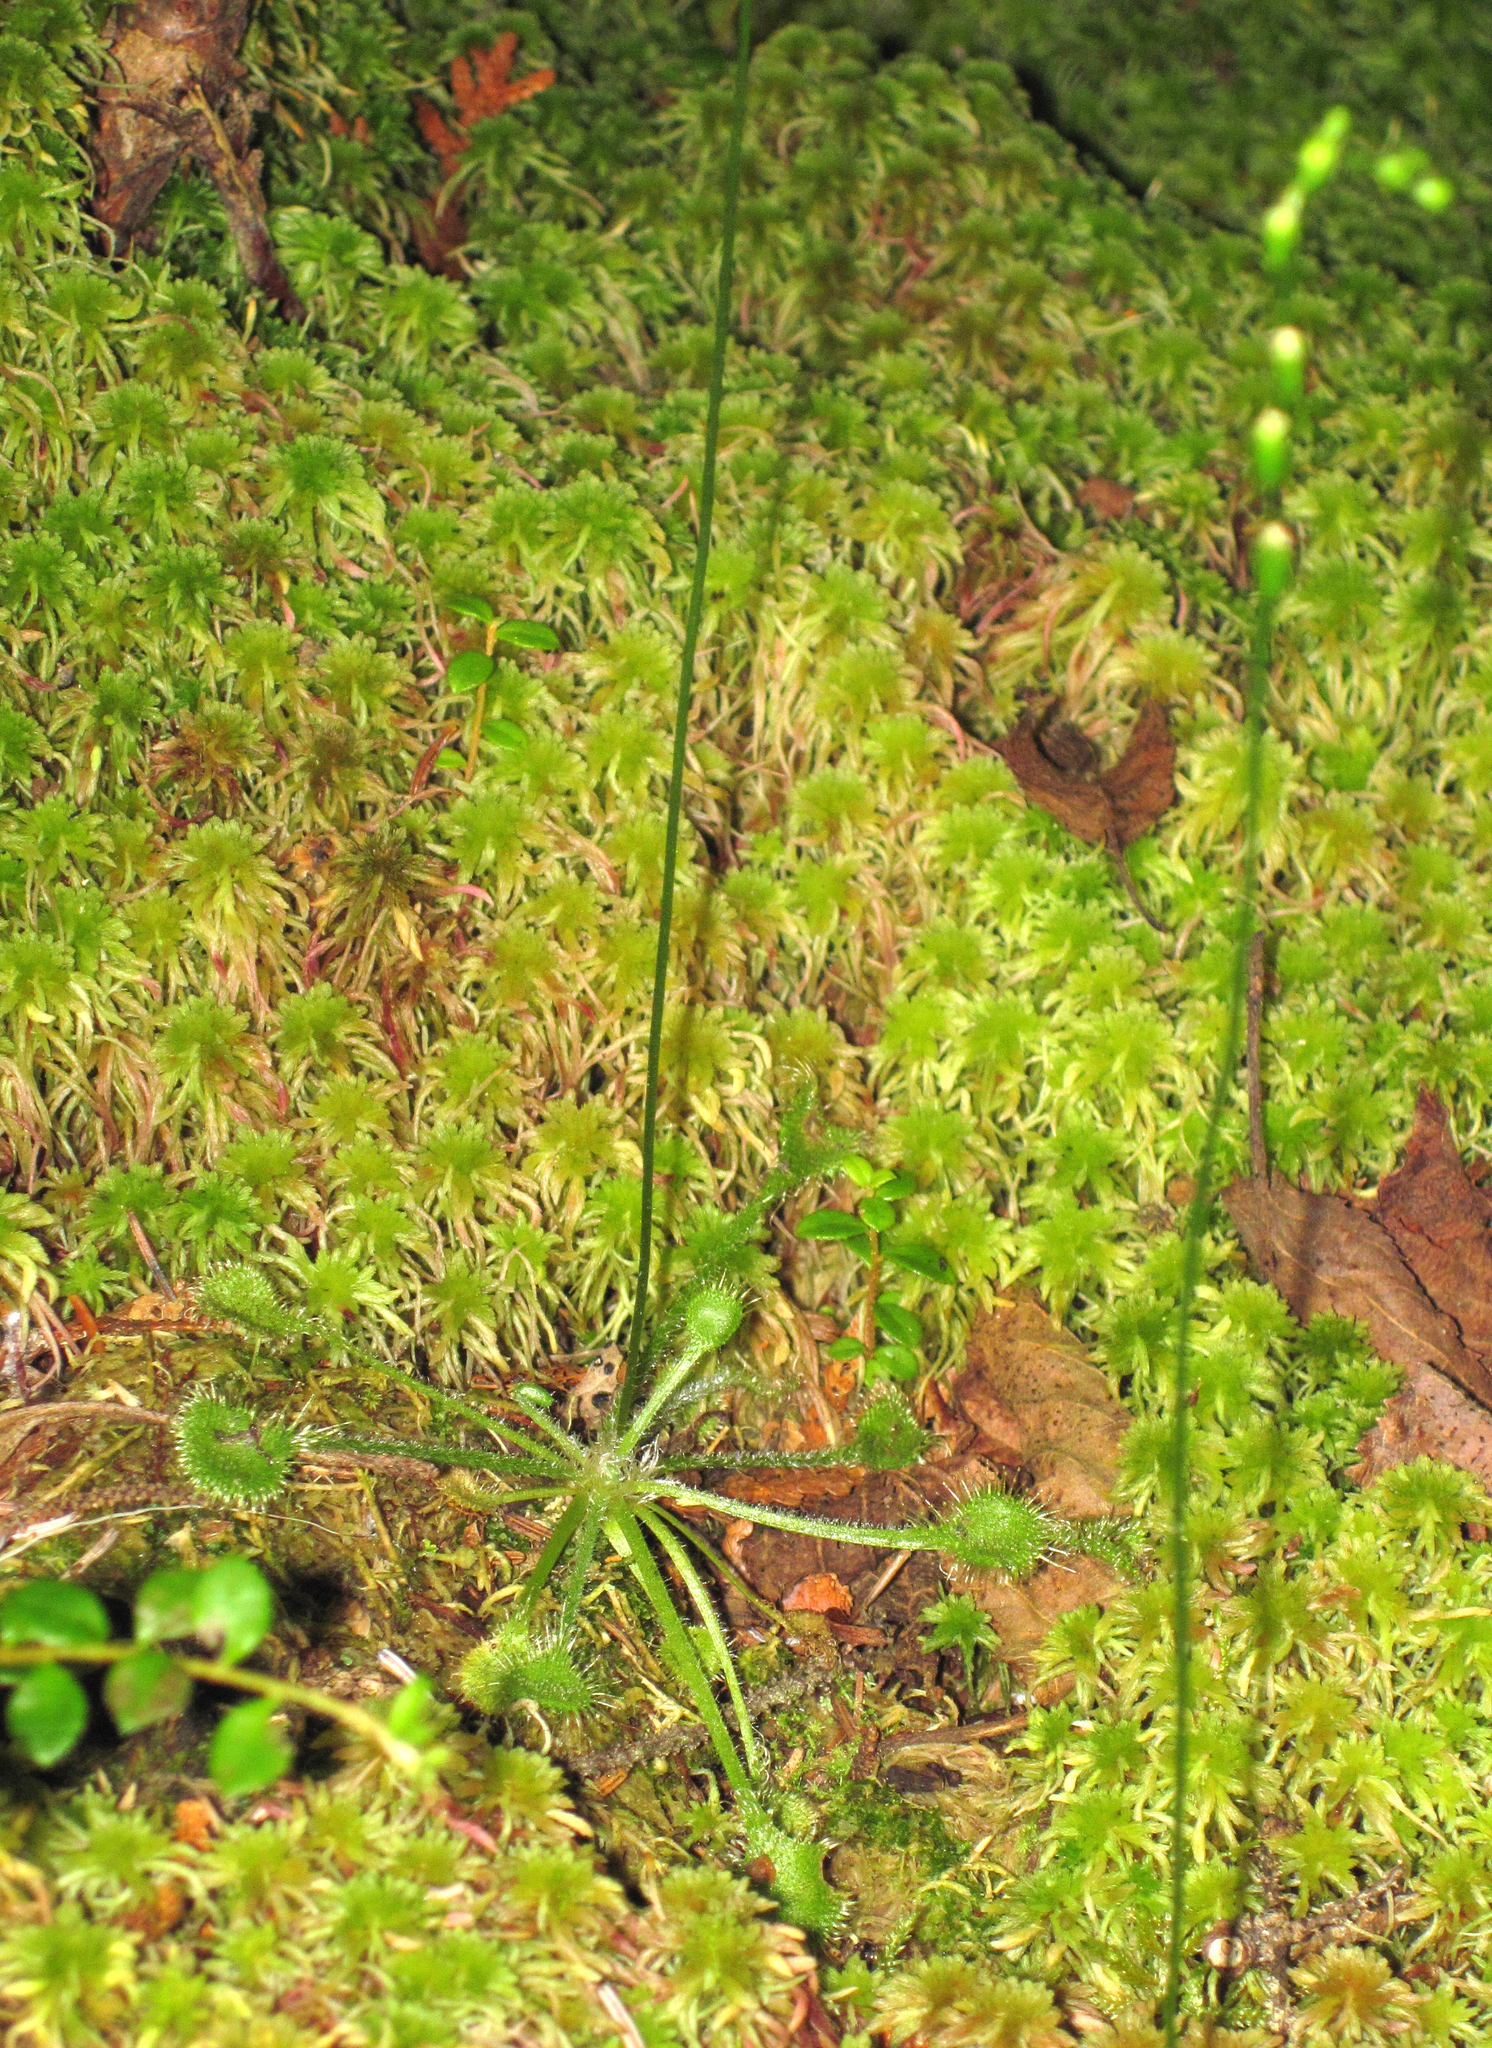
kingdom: Plantae
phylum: Tracheophyta
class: Magnoliopsida
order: Caryophyllales
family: Droseraceae
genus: Drosera
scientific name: Drosera rotundifolia
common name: Round-leaved sundew
